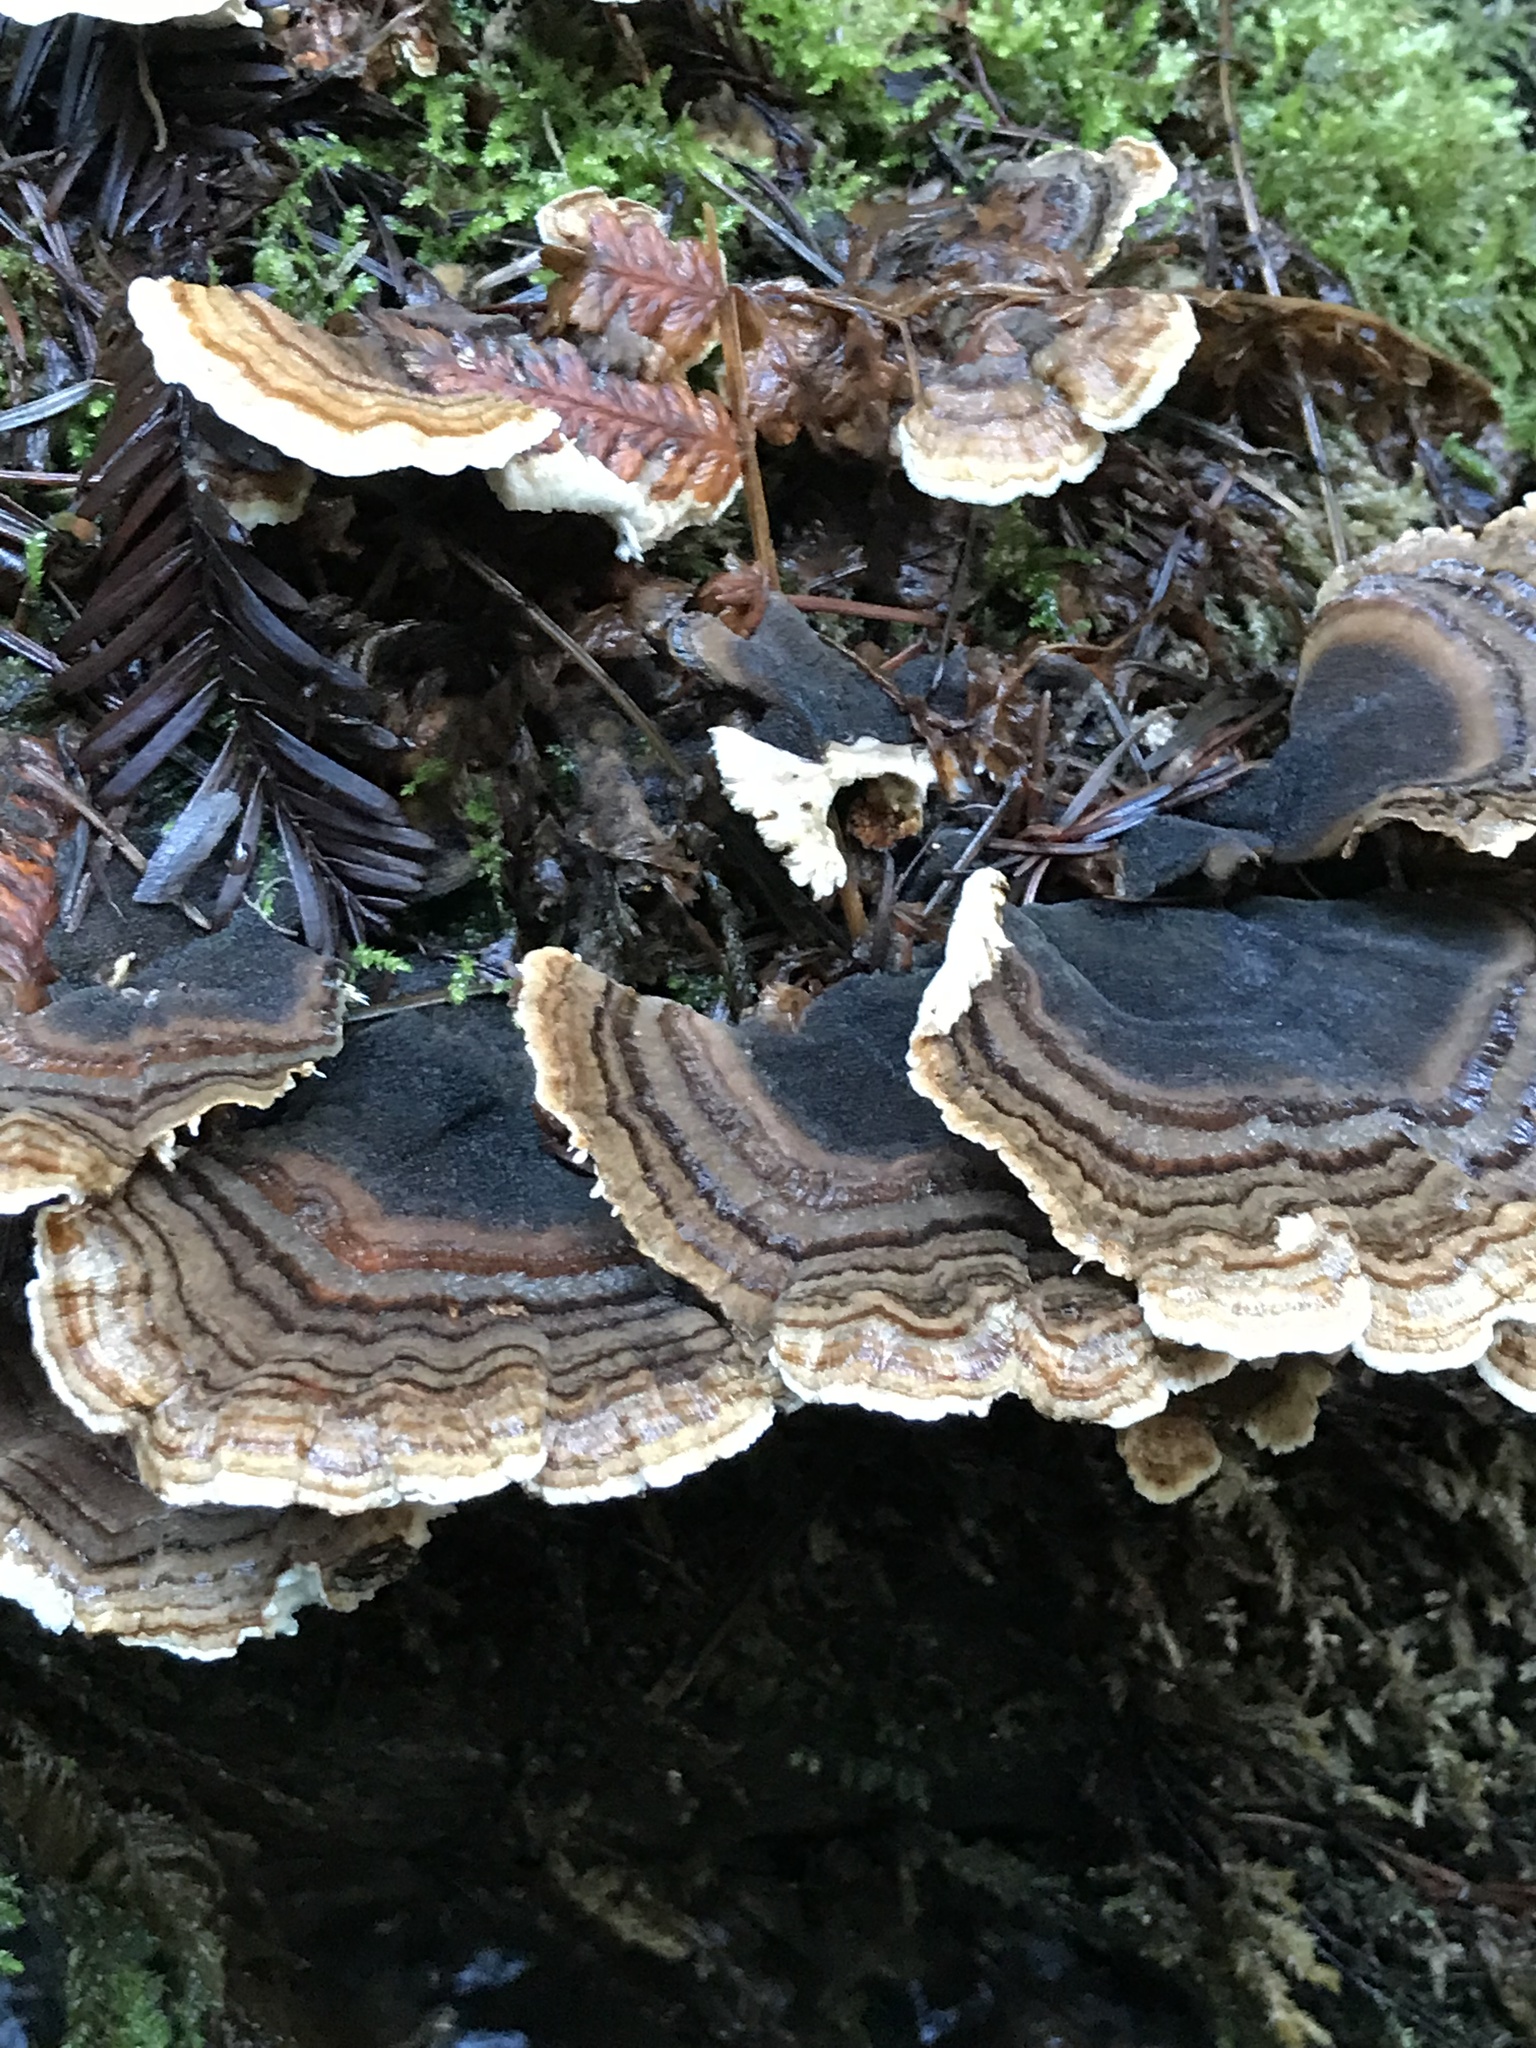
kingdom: Fungi
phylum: Basidiomycota
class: Agaricomycetes
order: Polyporales
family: Polyporaceae
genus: Trametes
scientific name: Trametes versicolor
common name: Turkeytail
